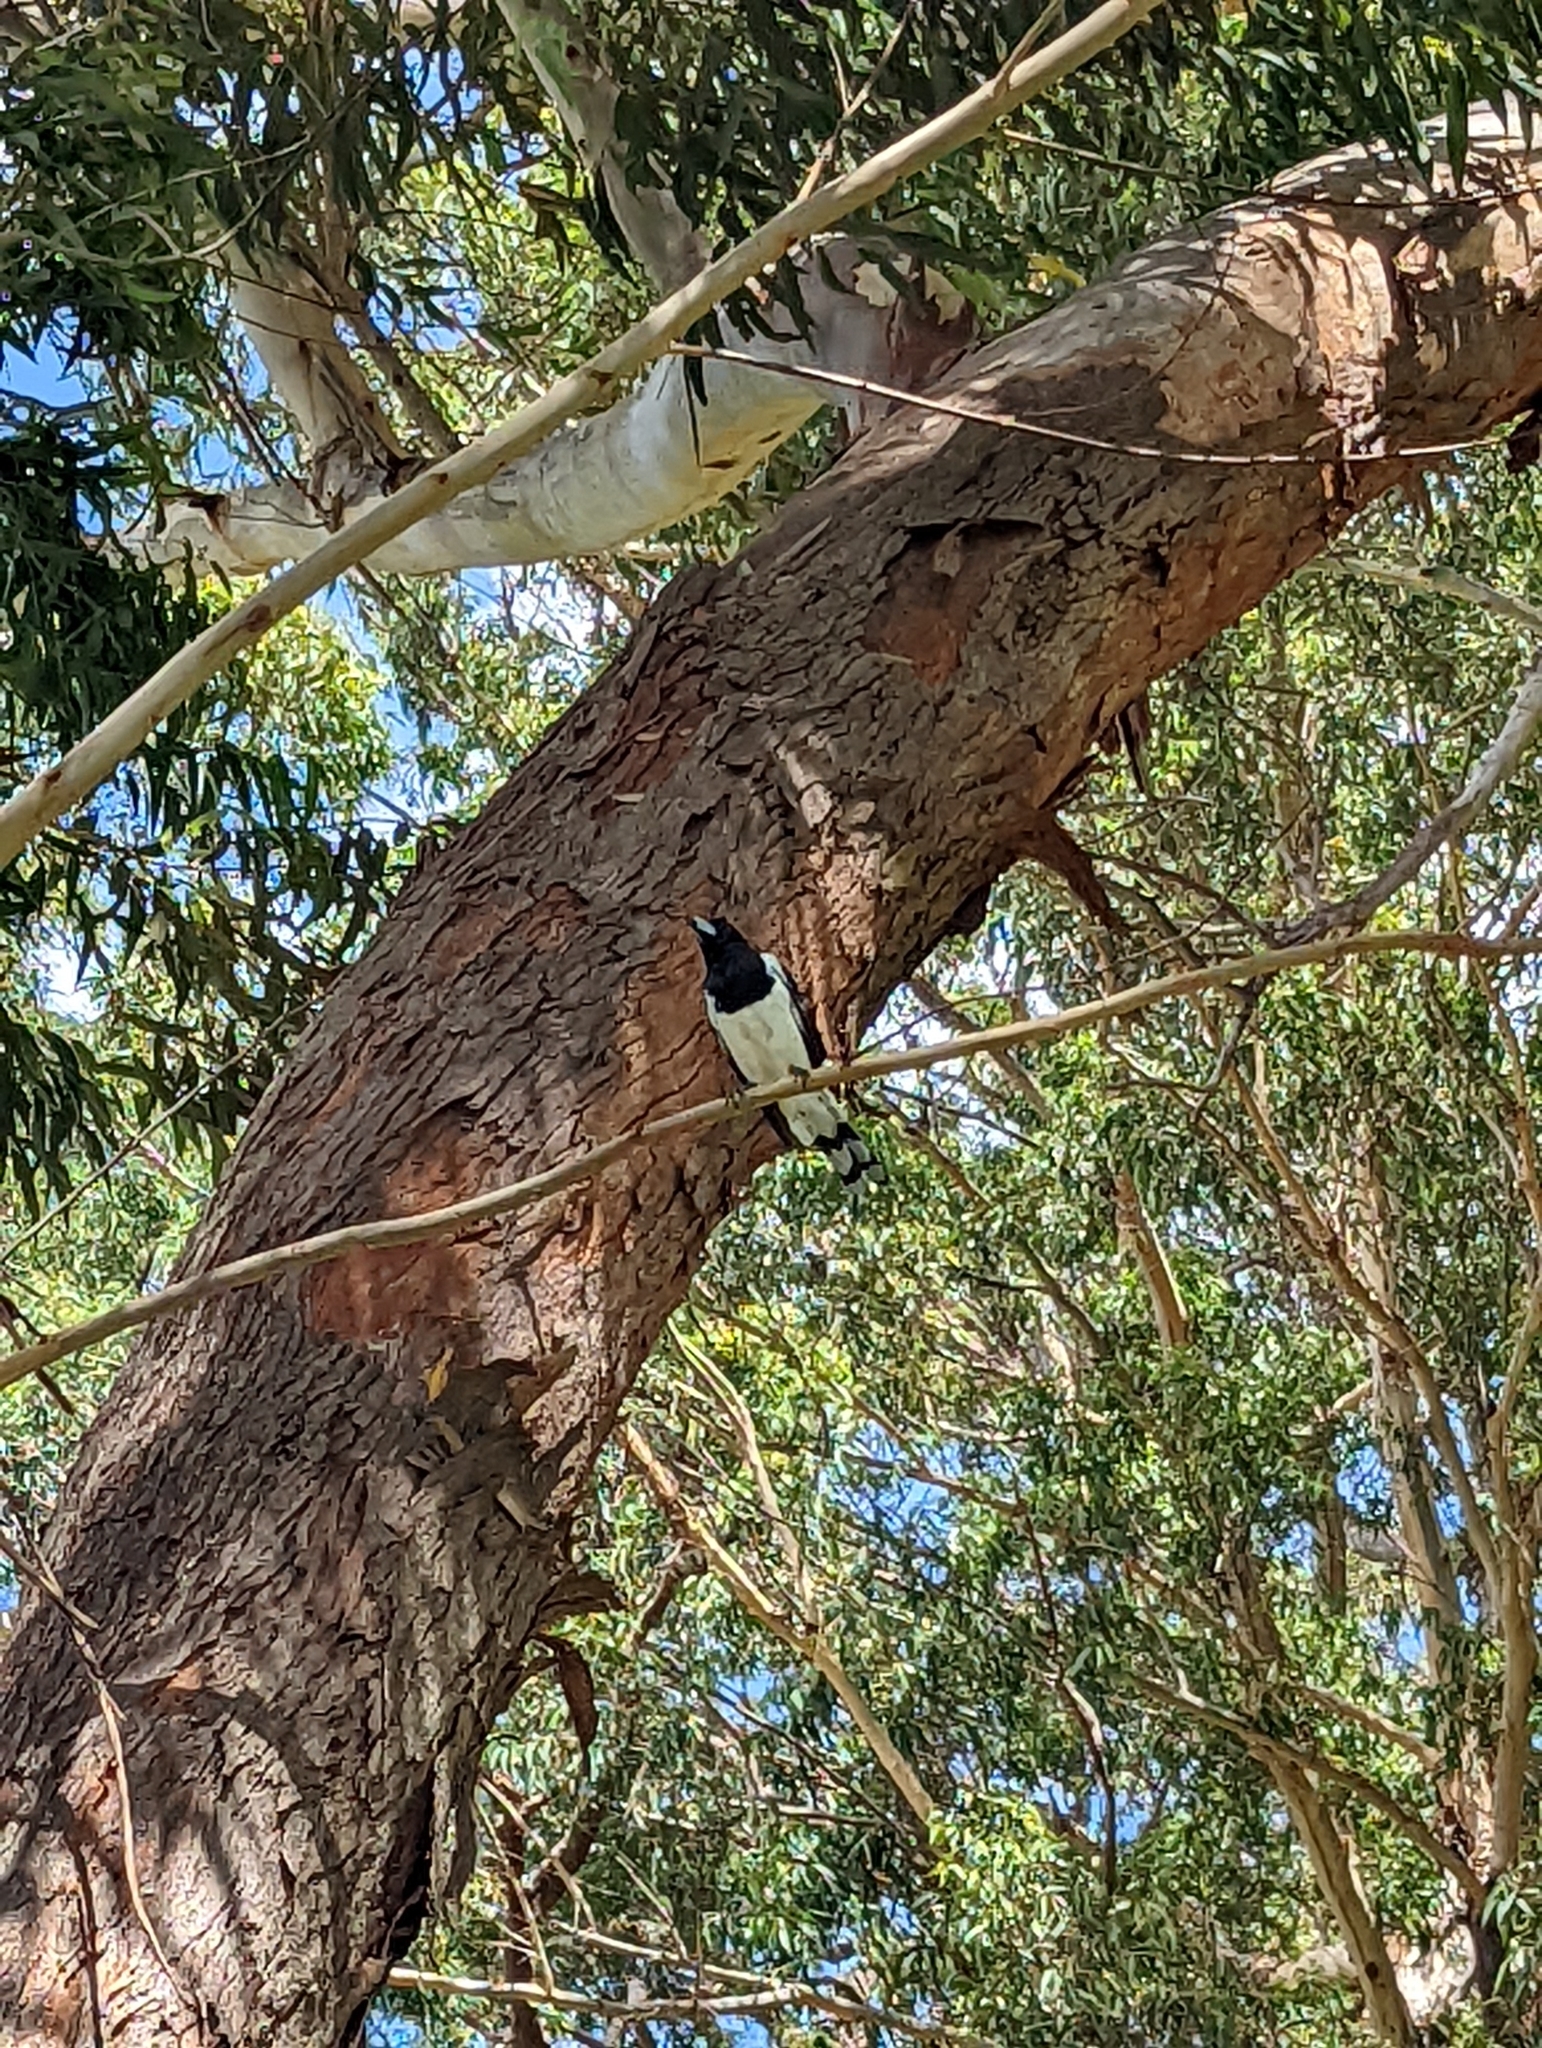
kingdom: Animalia
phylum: Chordata
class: Aves
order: Passeriformes
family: Cracticidae
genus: Cracticus
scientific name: Cracticus nigrogularis
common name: Pied butcherbird
